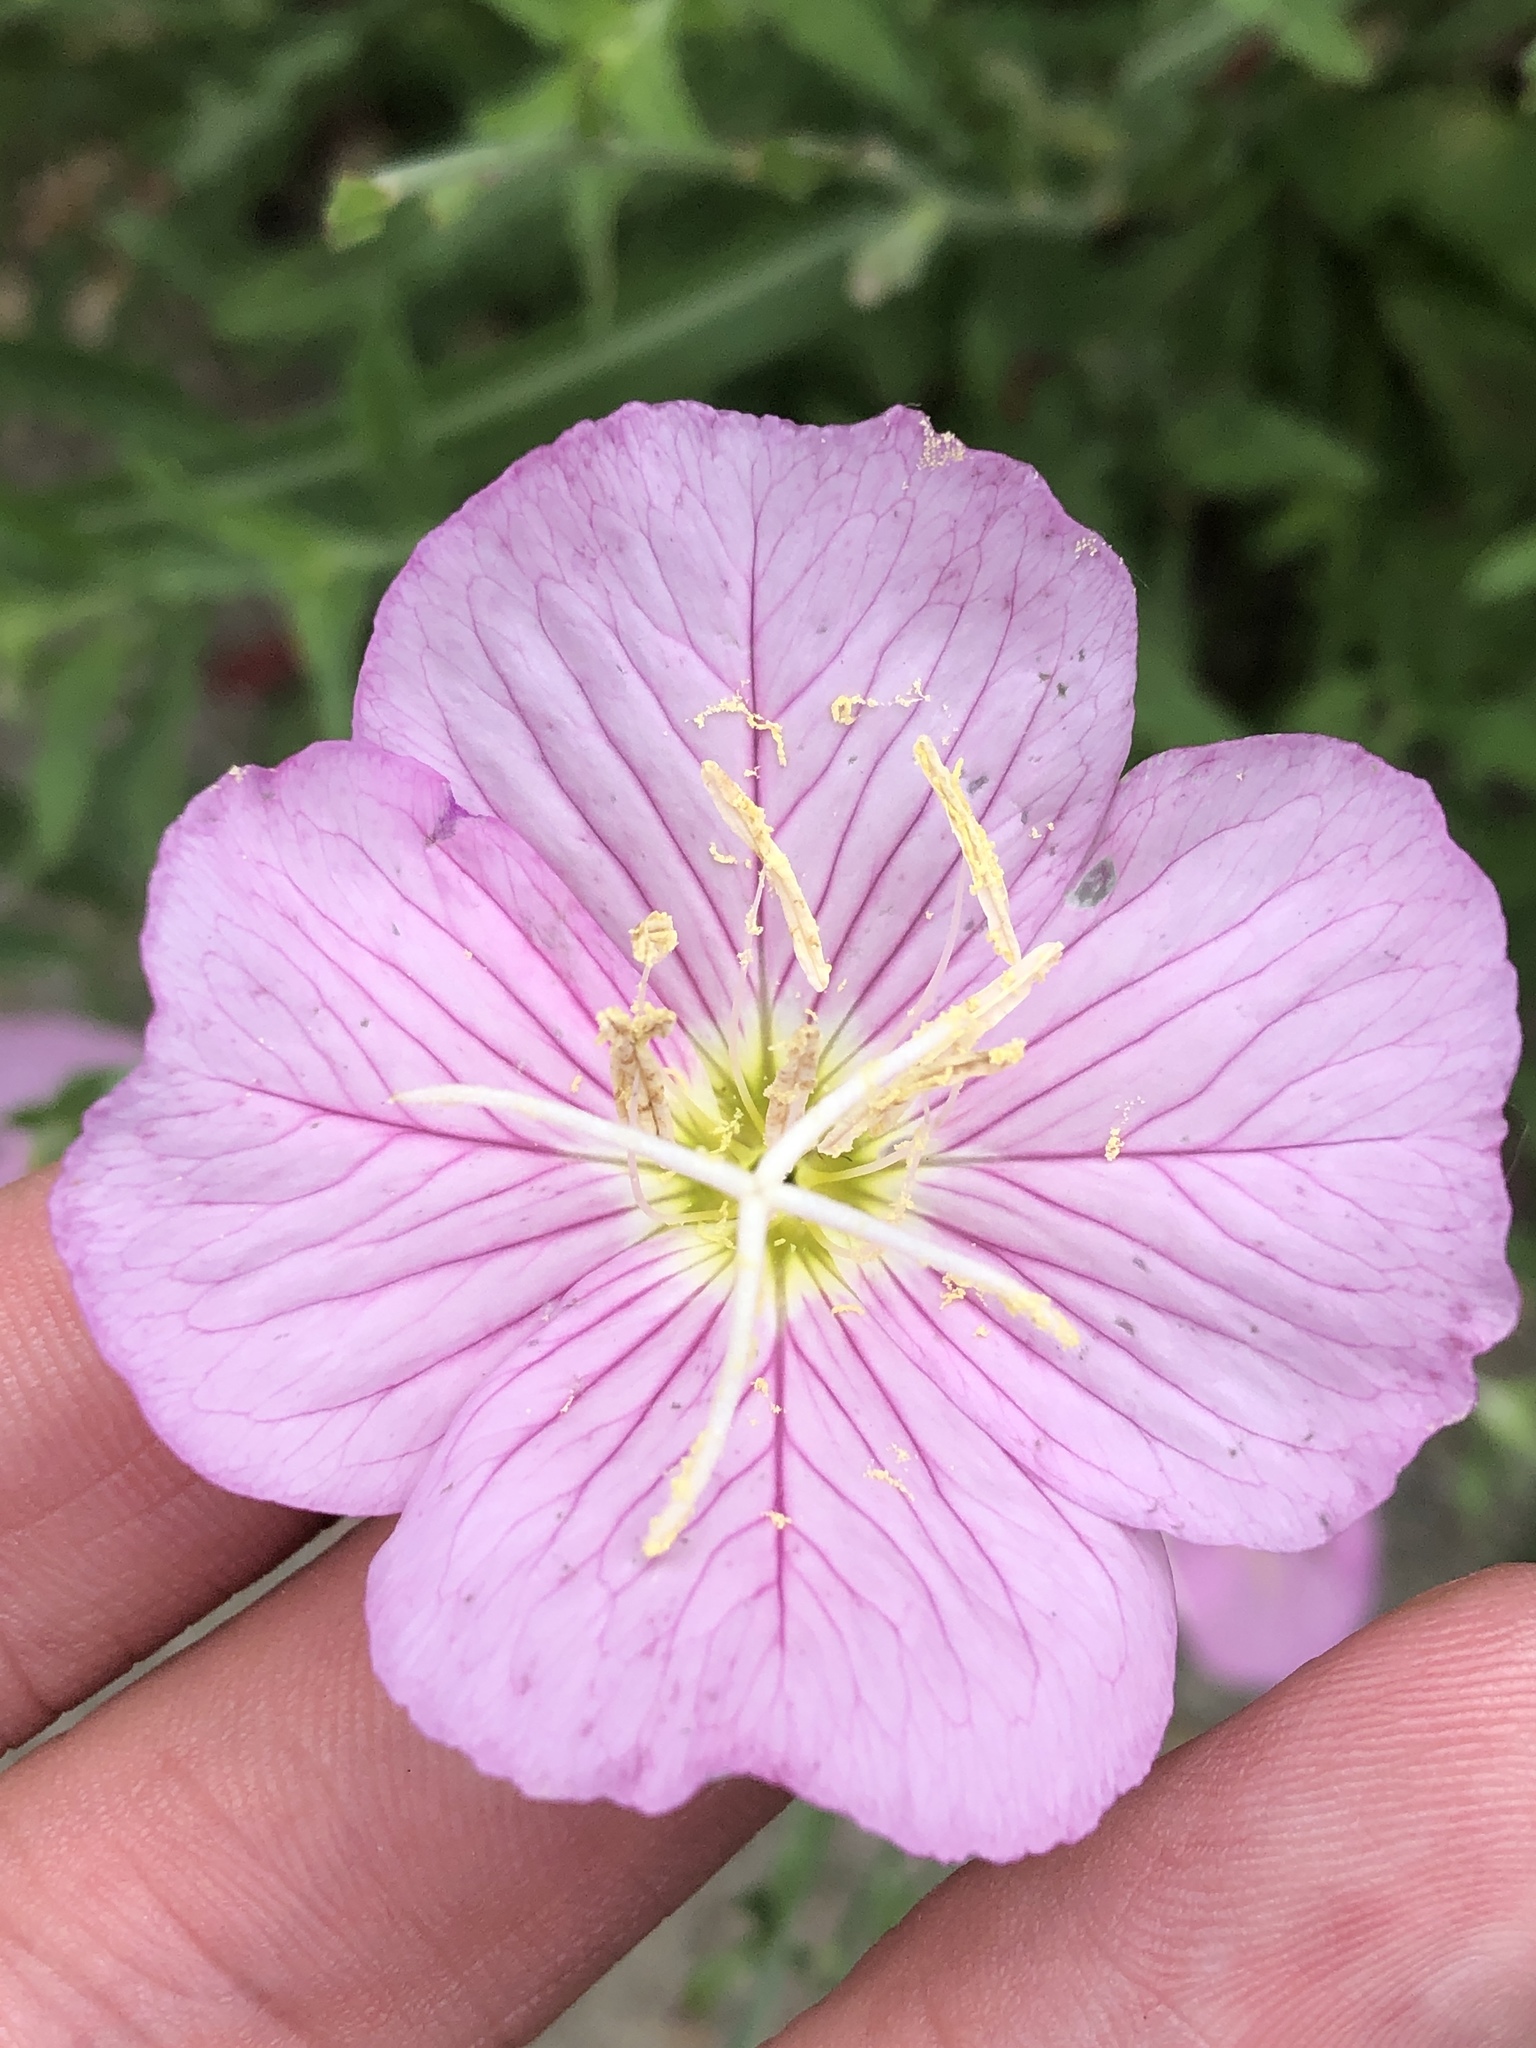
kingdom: Plantae
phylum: Tracheophyta
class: Magnoliopsida
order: Myrtales
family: Onagraceae
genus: Oenothera
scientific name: Oenothera speciosa
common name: White evening-primrose
